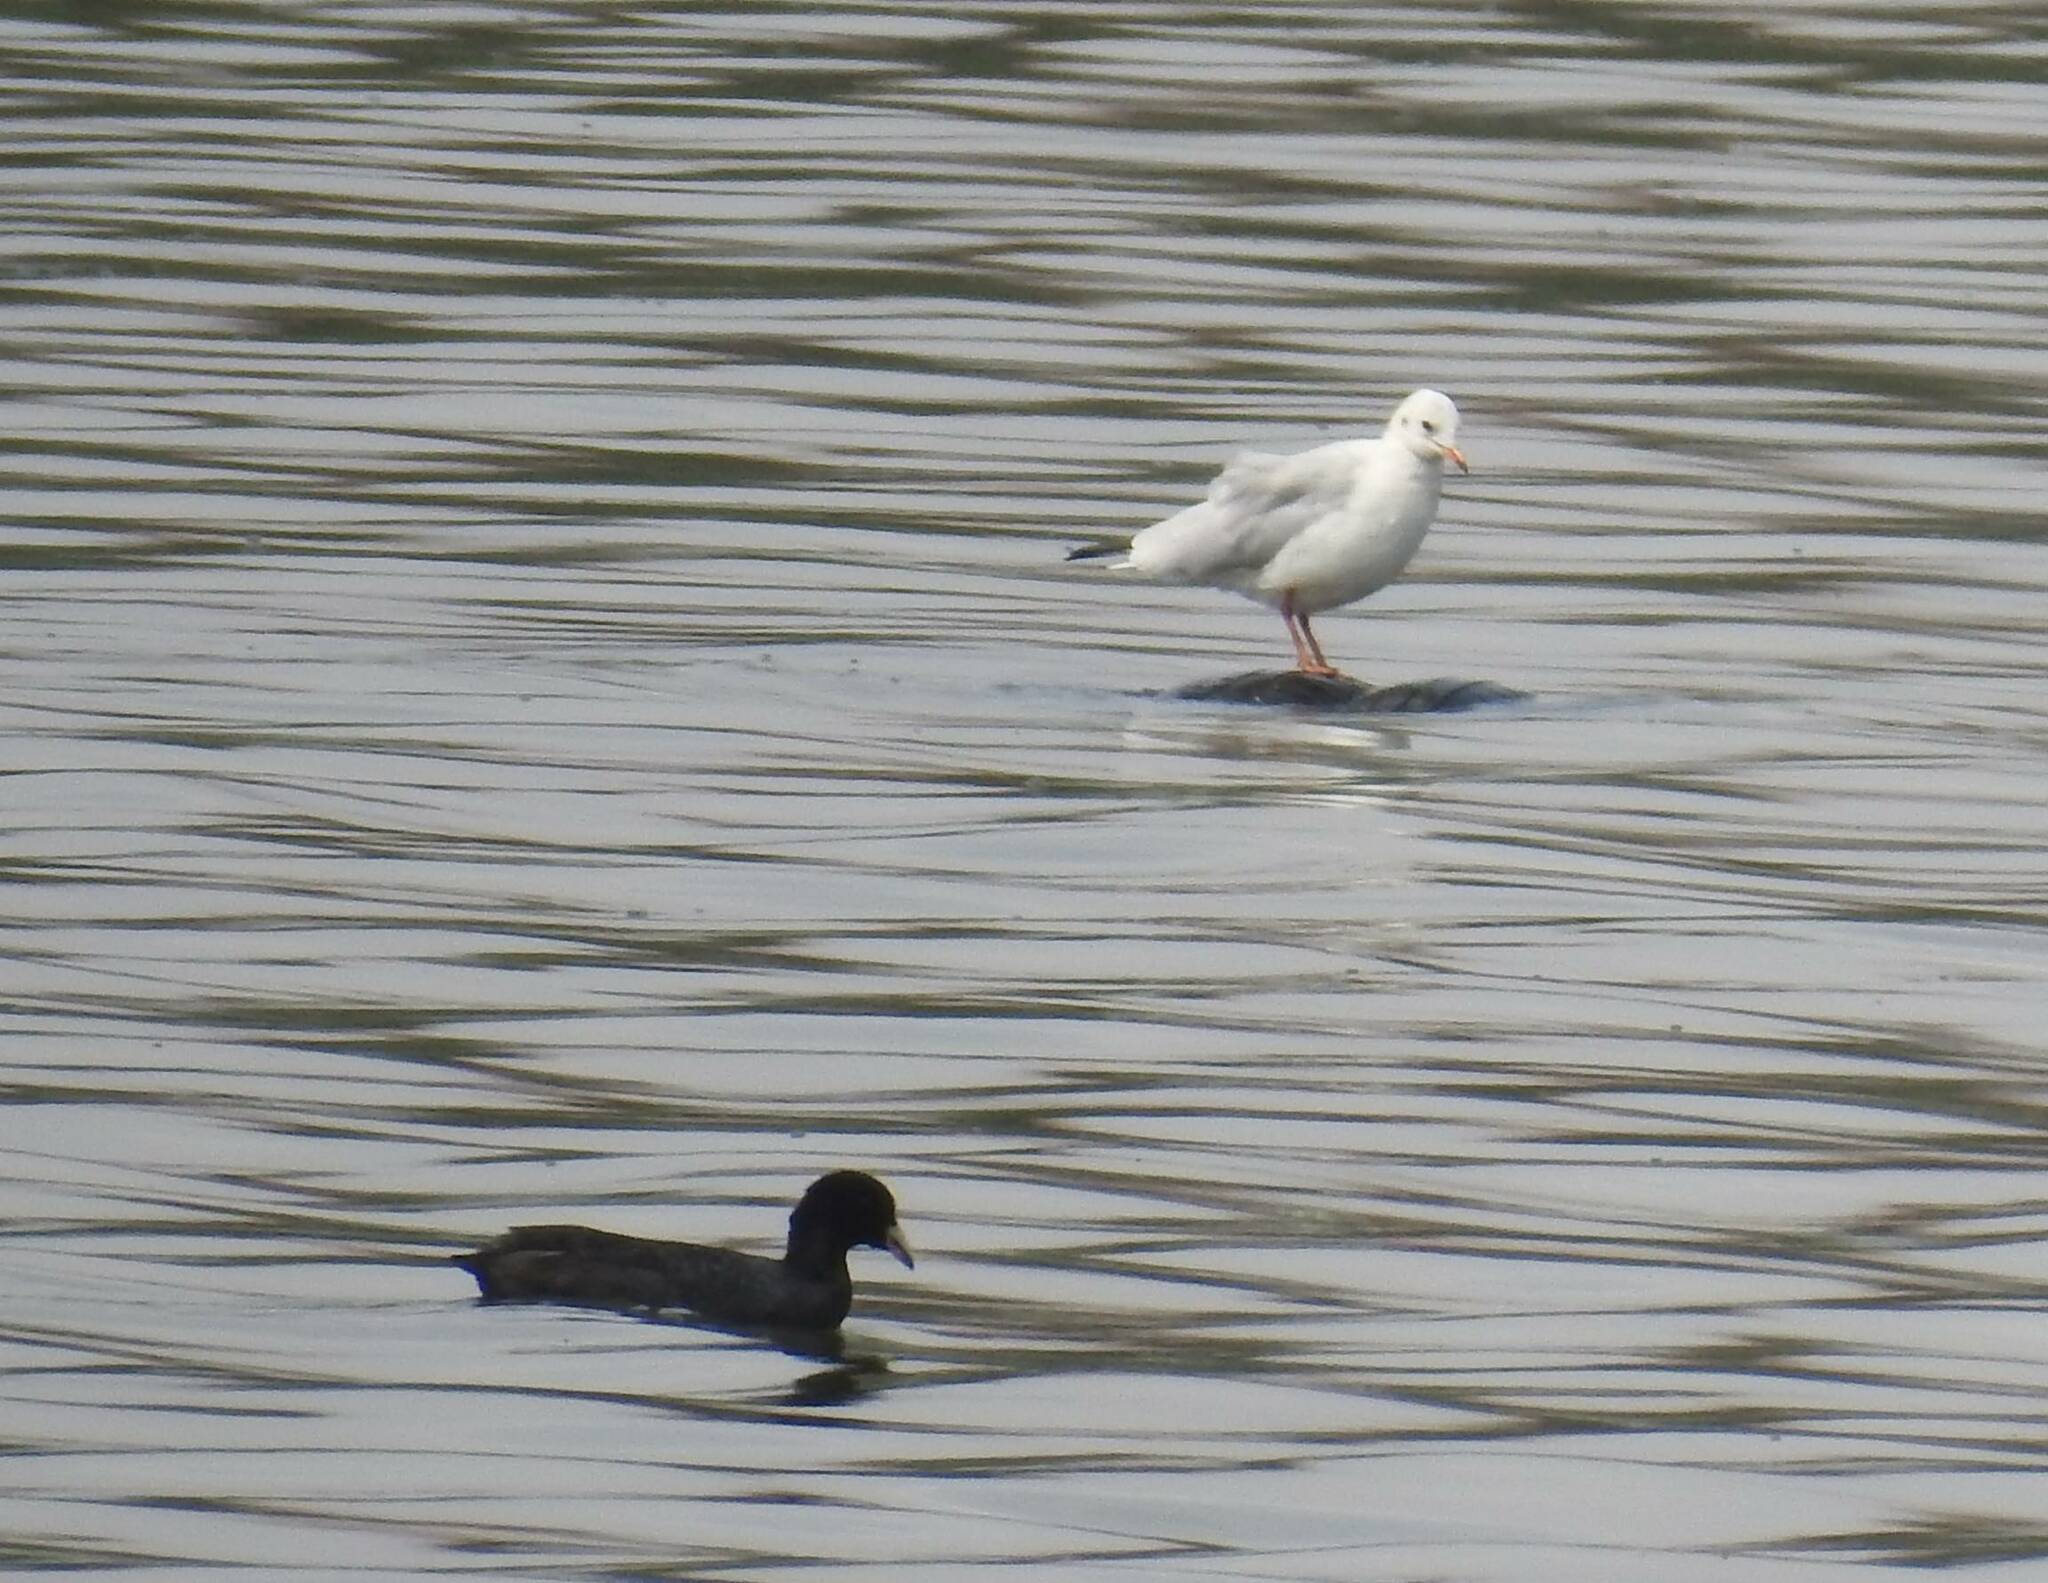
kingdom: Animalia
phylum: Chordata
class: Aves
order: Gruiformes
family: Rallidae
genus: Fulica
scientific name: Fulica atra
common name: Eurasian coot
